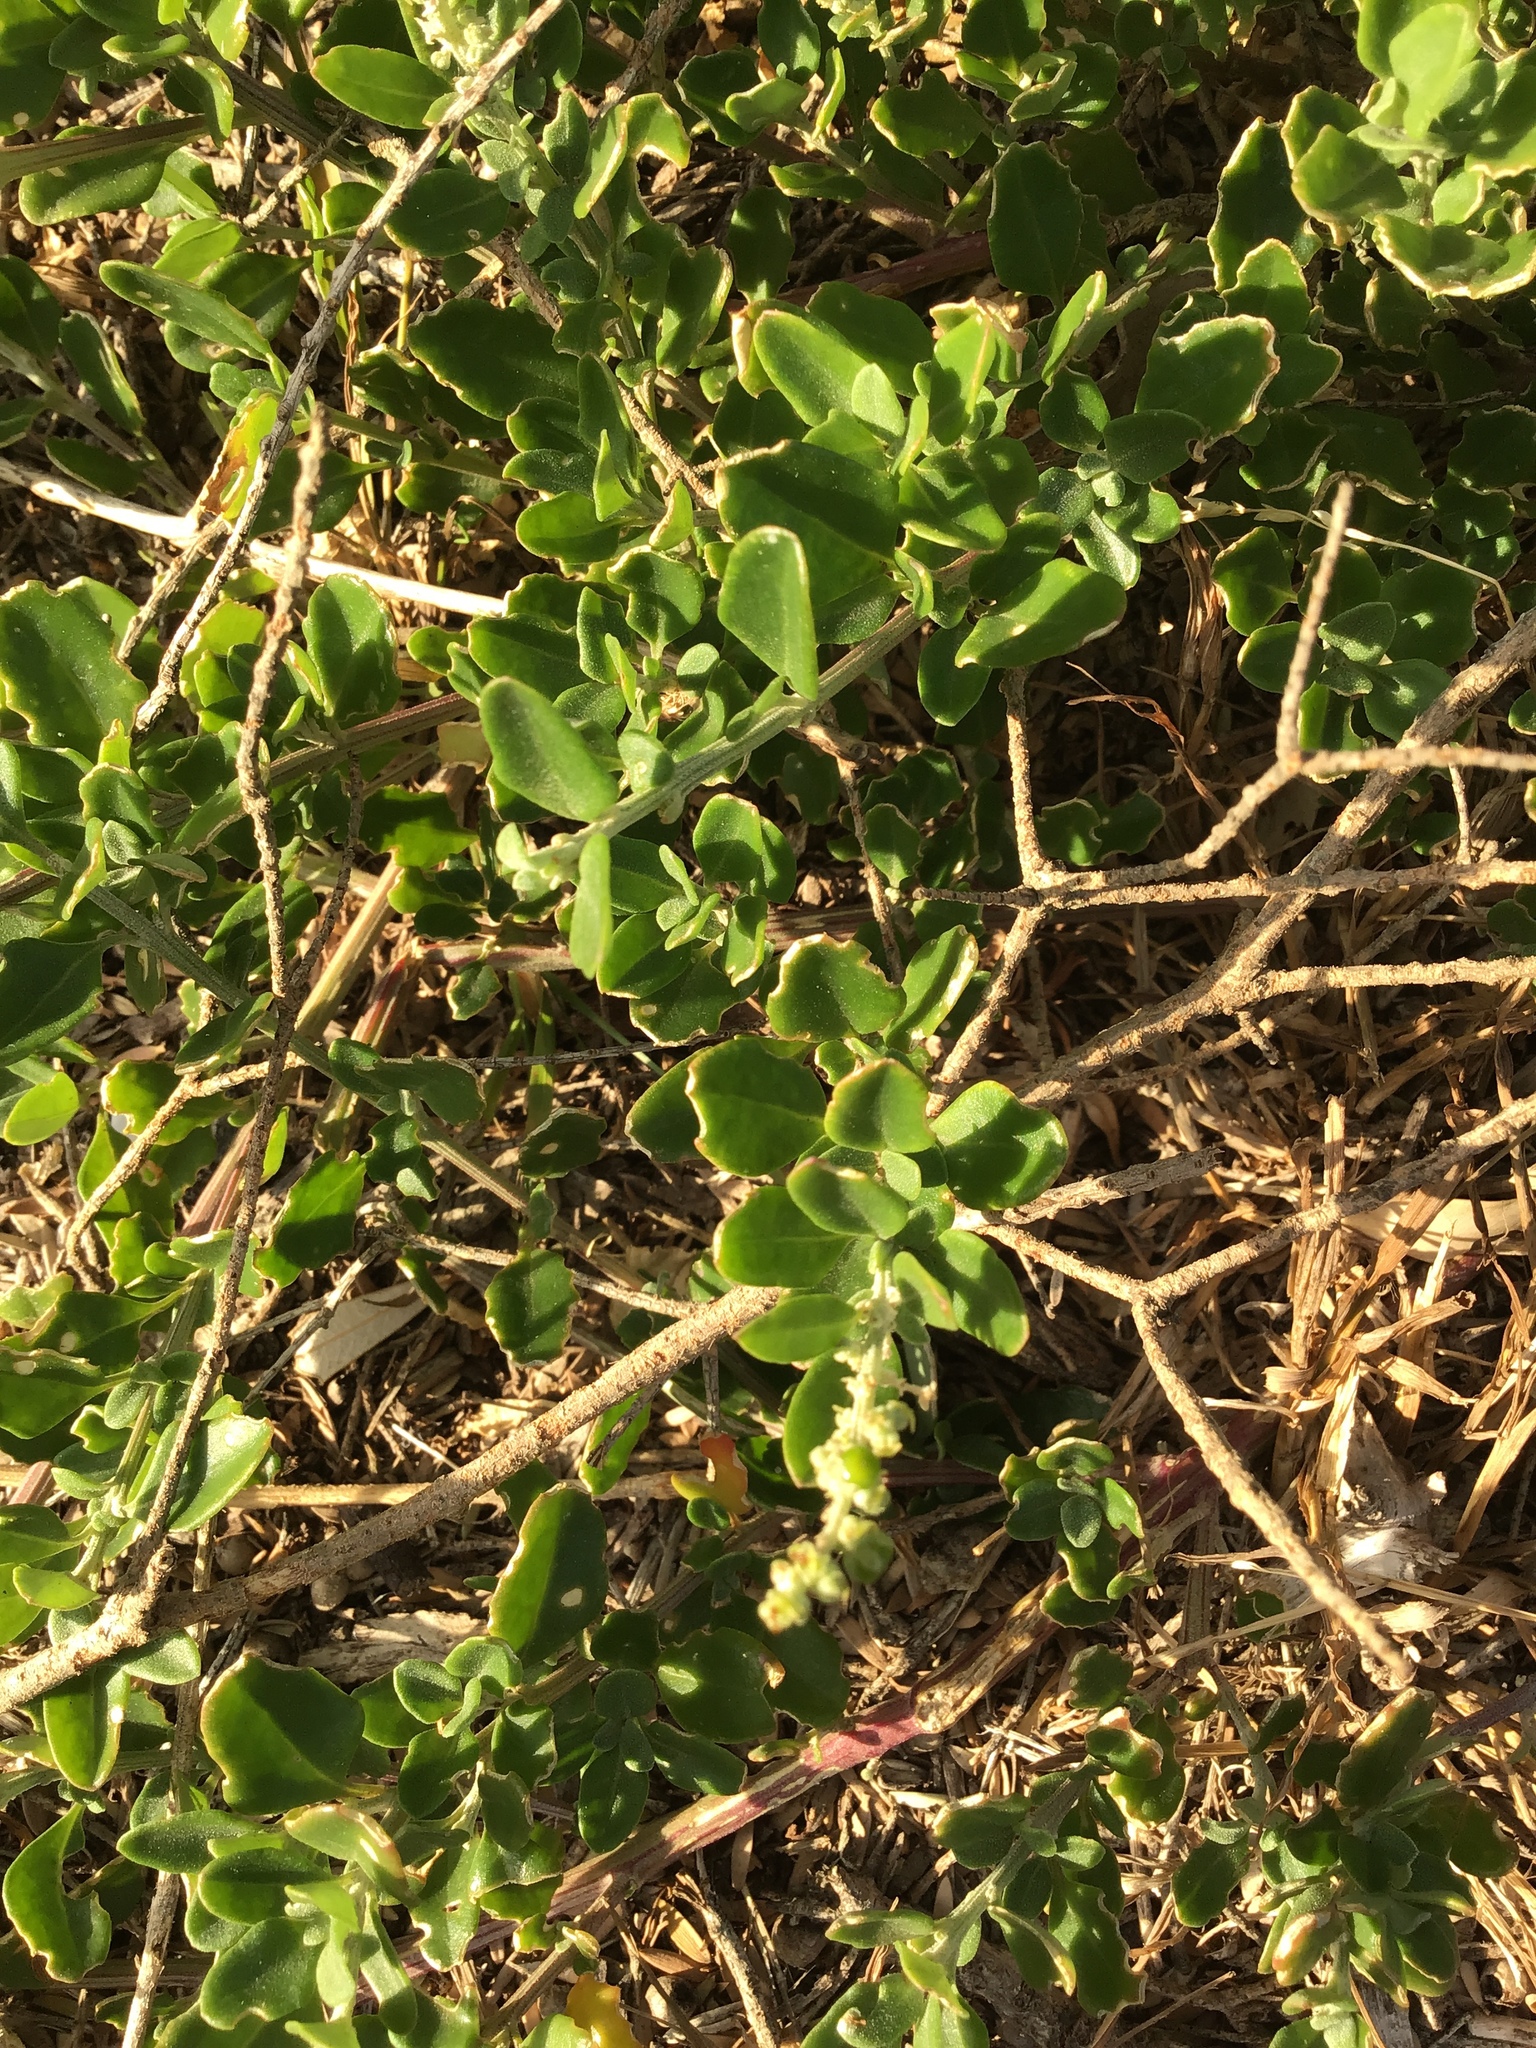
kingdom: Plantae
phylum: Tracheophyta
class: Magnoliopsida
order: Caryophyllales
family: Amaranthaceae
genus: Chenopodium
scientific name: Chenopodium candolleanum
